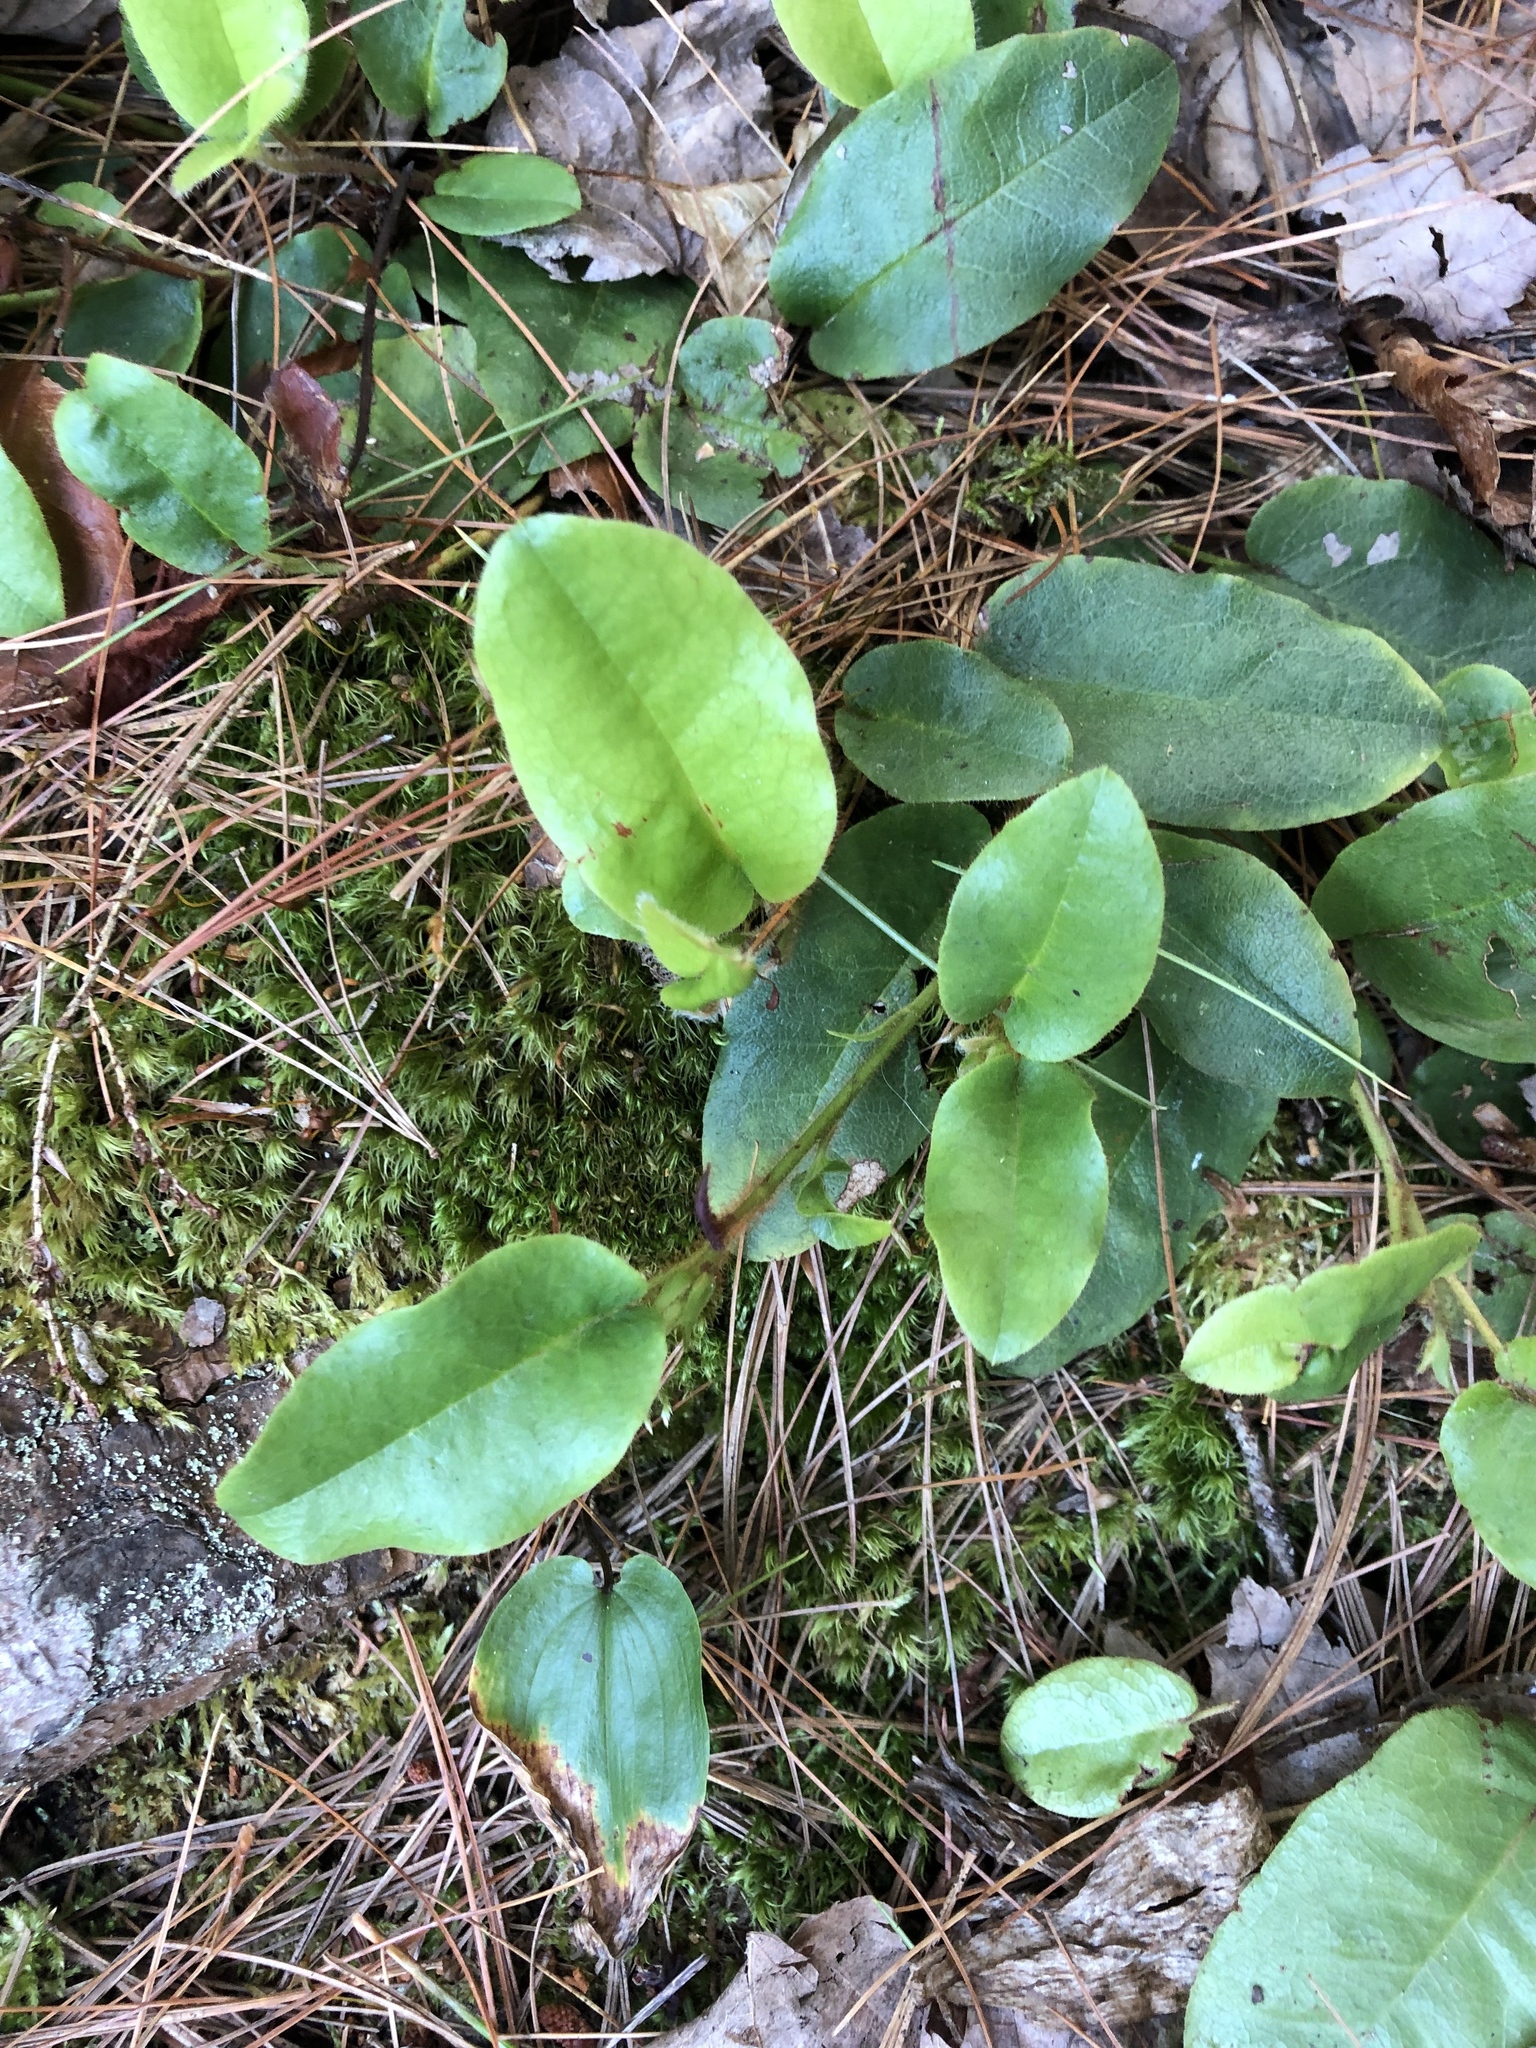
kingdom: Plantae
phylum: Tracheophyta
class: Magnoliopsida
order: Ericales
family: Ericaceae
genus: Epigaea
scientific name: Epigaea repens
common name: Gravelroot
